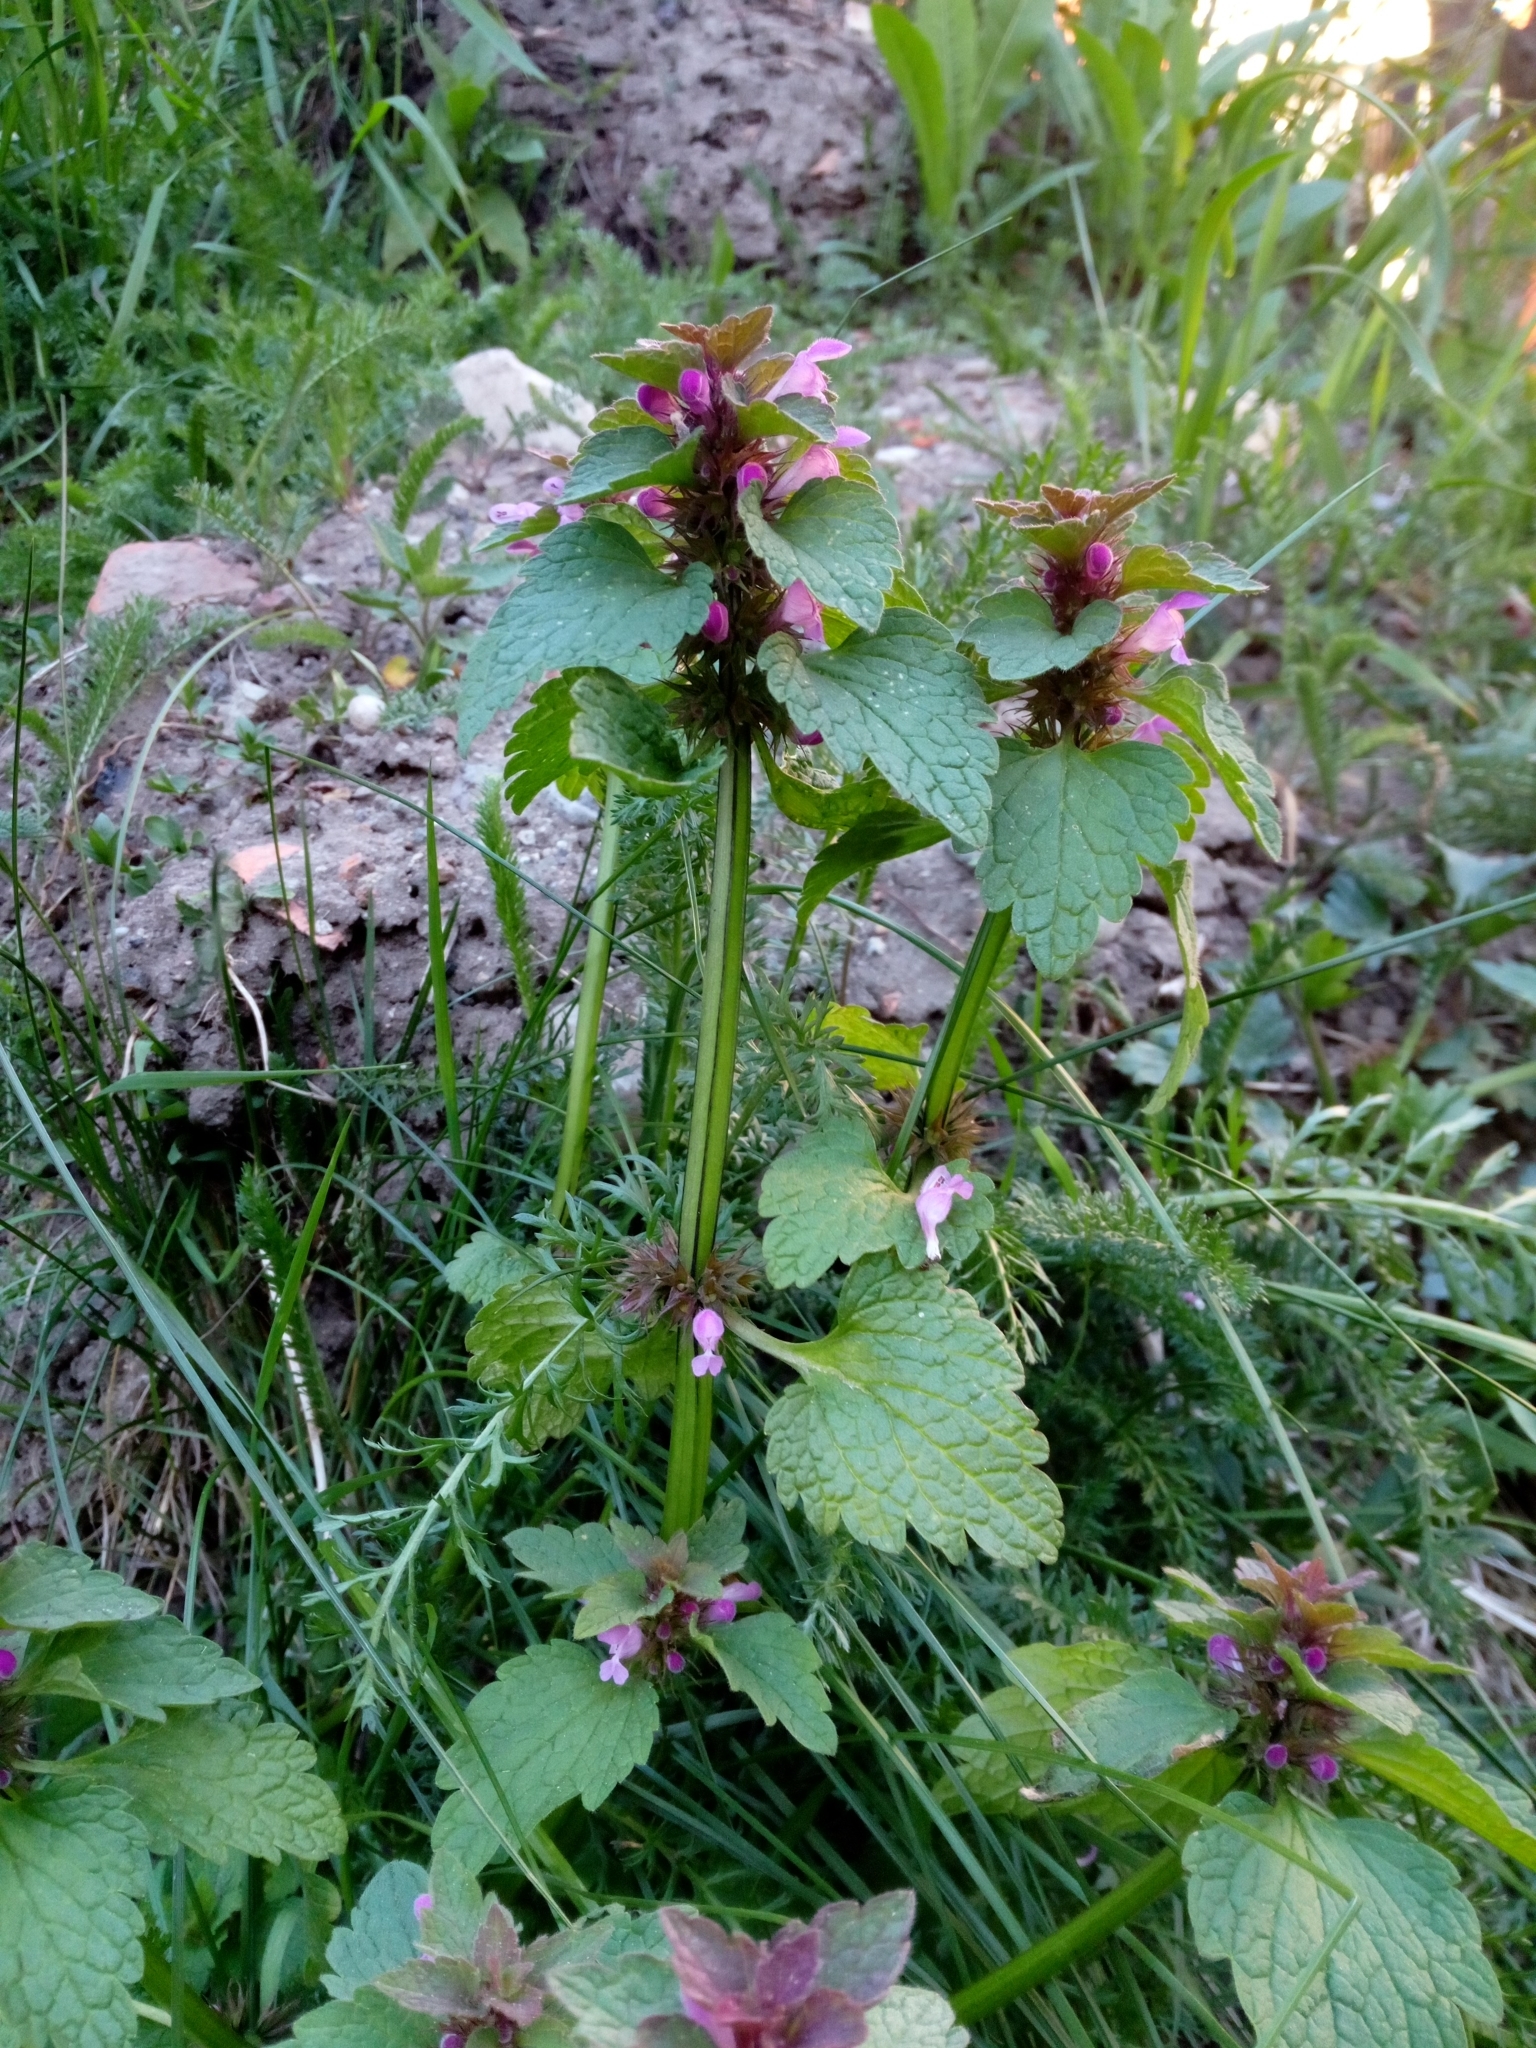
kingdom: Plantae
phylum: Tracheophyta
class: Magnoliopsida
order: Lamiales
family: Lamiaceae
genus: Lamium
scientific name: Lamium purpureum
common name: Red dead-nettle
